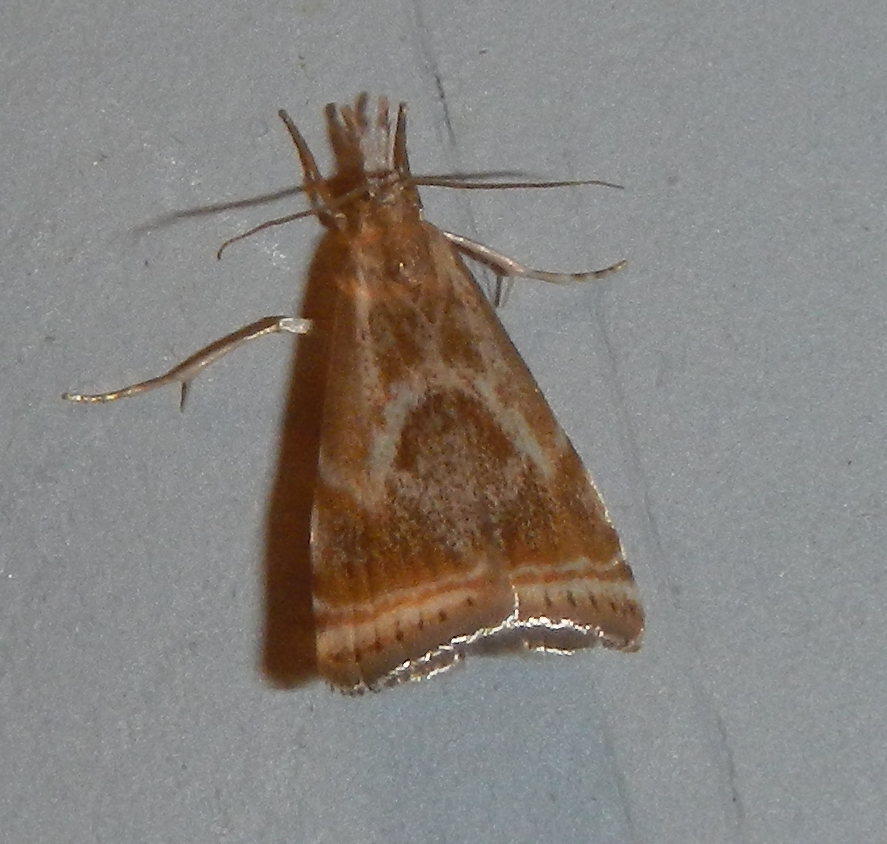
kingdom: Animalia
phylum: Arthropoda
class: Insecta
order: Lepidoptera
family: Crambidae
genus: Microcrambus
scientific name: Microcrambus elegans
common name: Elegant grass-veneer
